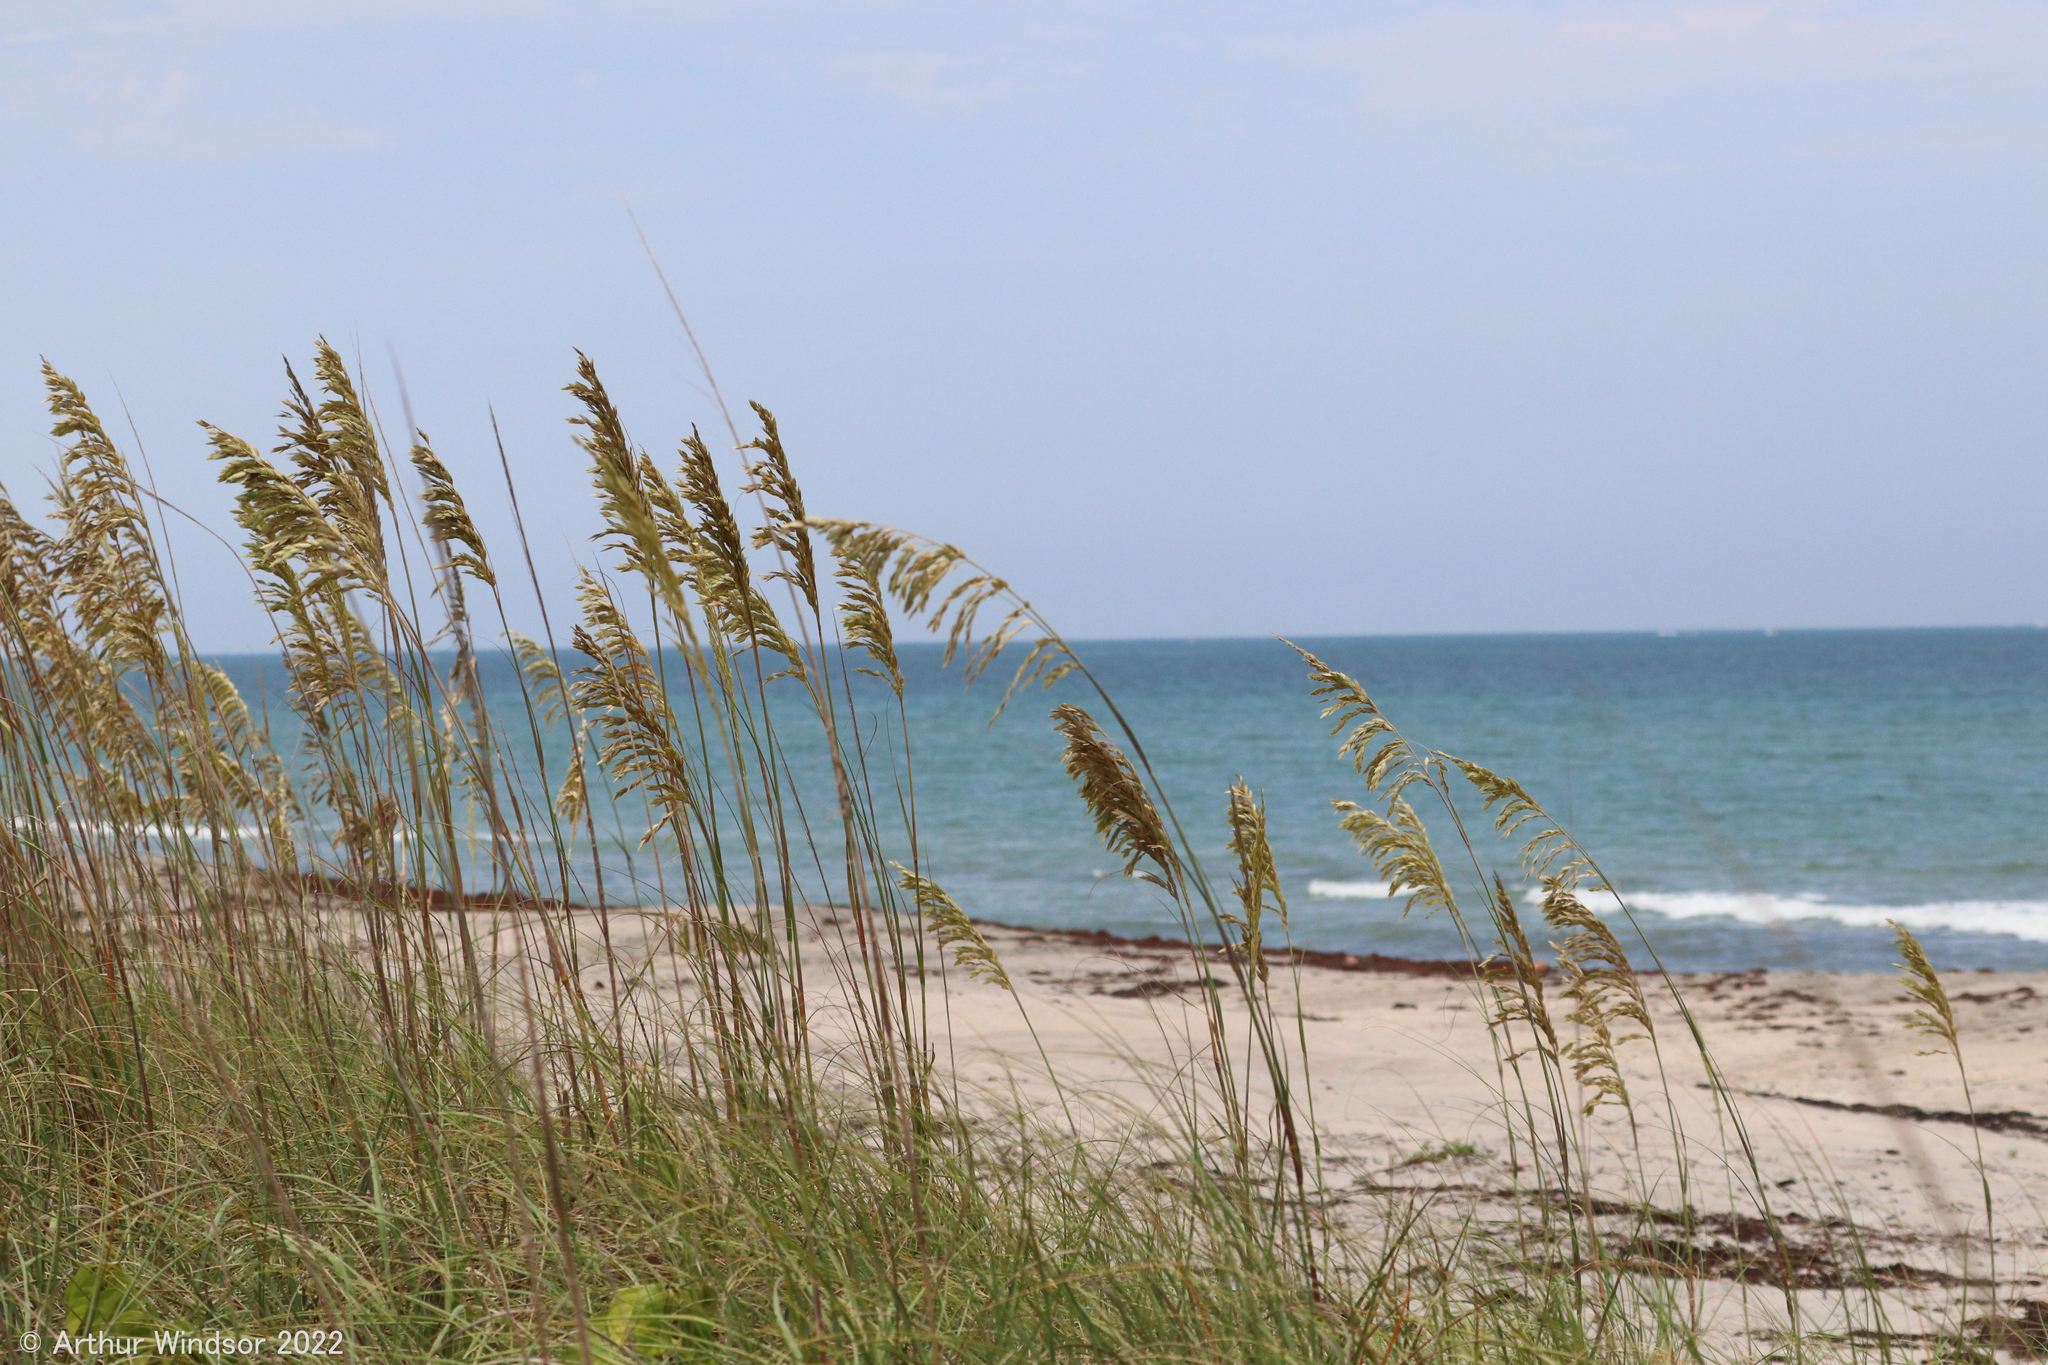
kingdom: Plantae
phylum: Tracheophyta
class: Liliopsida
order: Poales
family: Poaceae
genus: Uniola
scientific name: Uniola paniculata
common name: Seaside-oats
